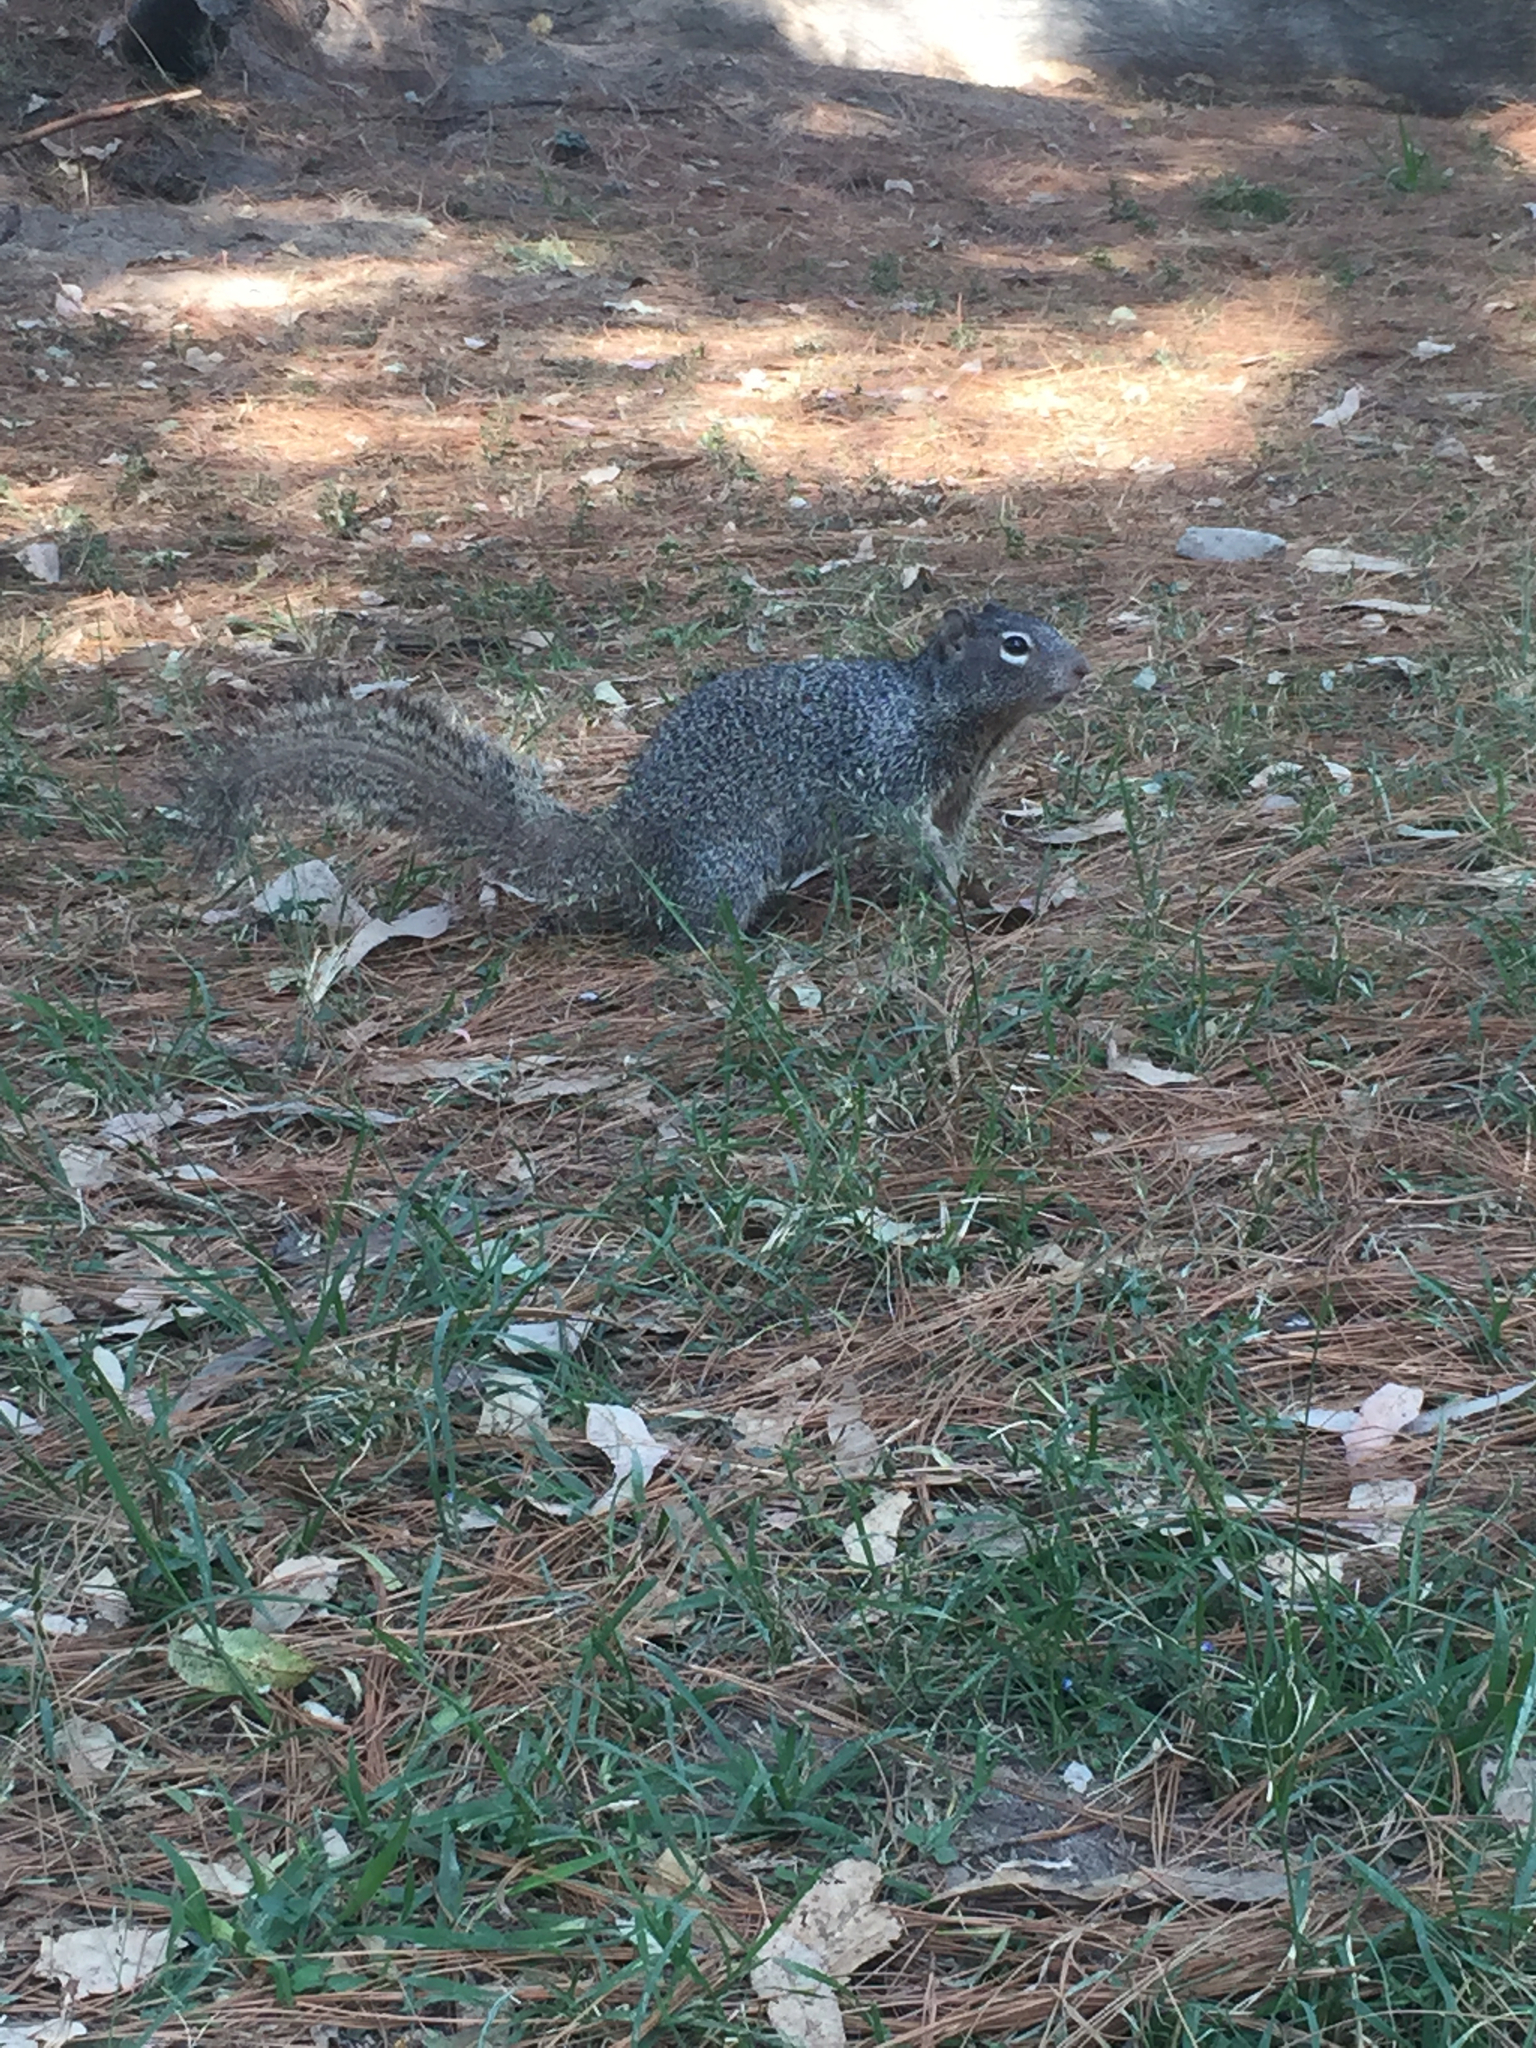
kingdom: Animalia
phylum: Chordata
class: Mammalia
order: Rodentia
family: Sciuridae
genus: Otospermophilus
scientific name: Otospermophilus variegatus
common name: Rock squirrel
